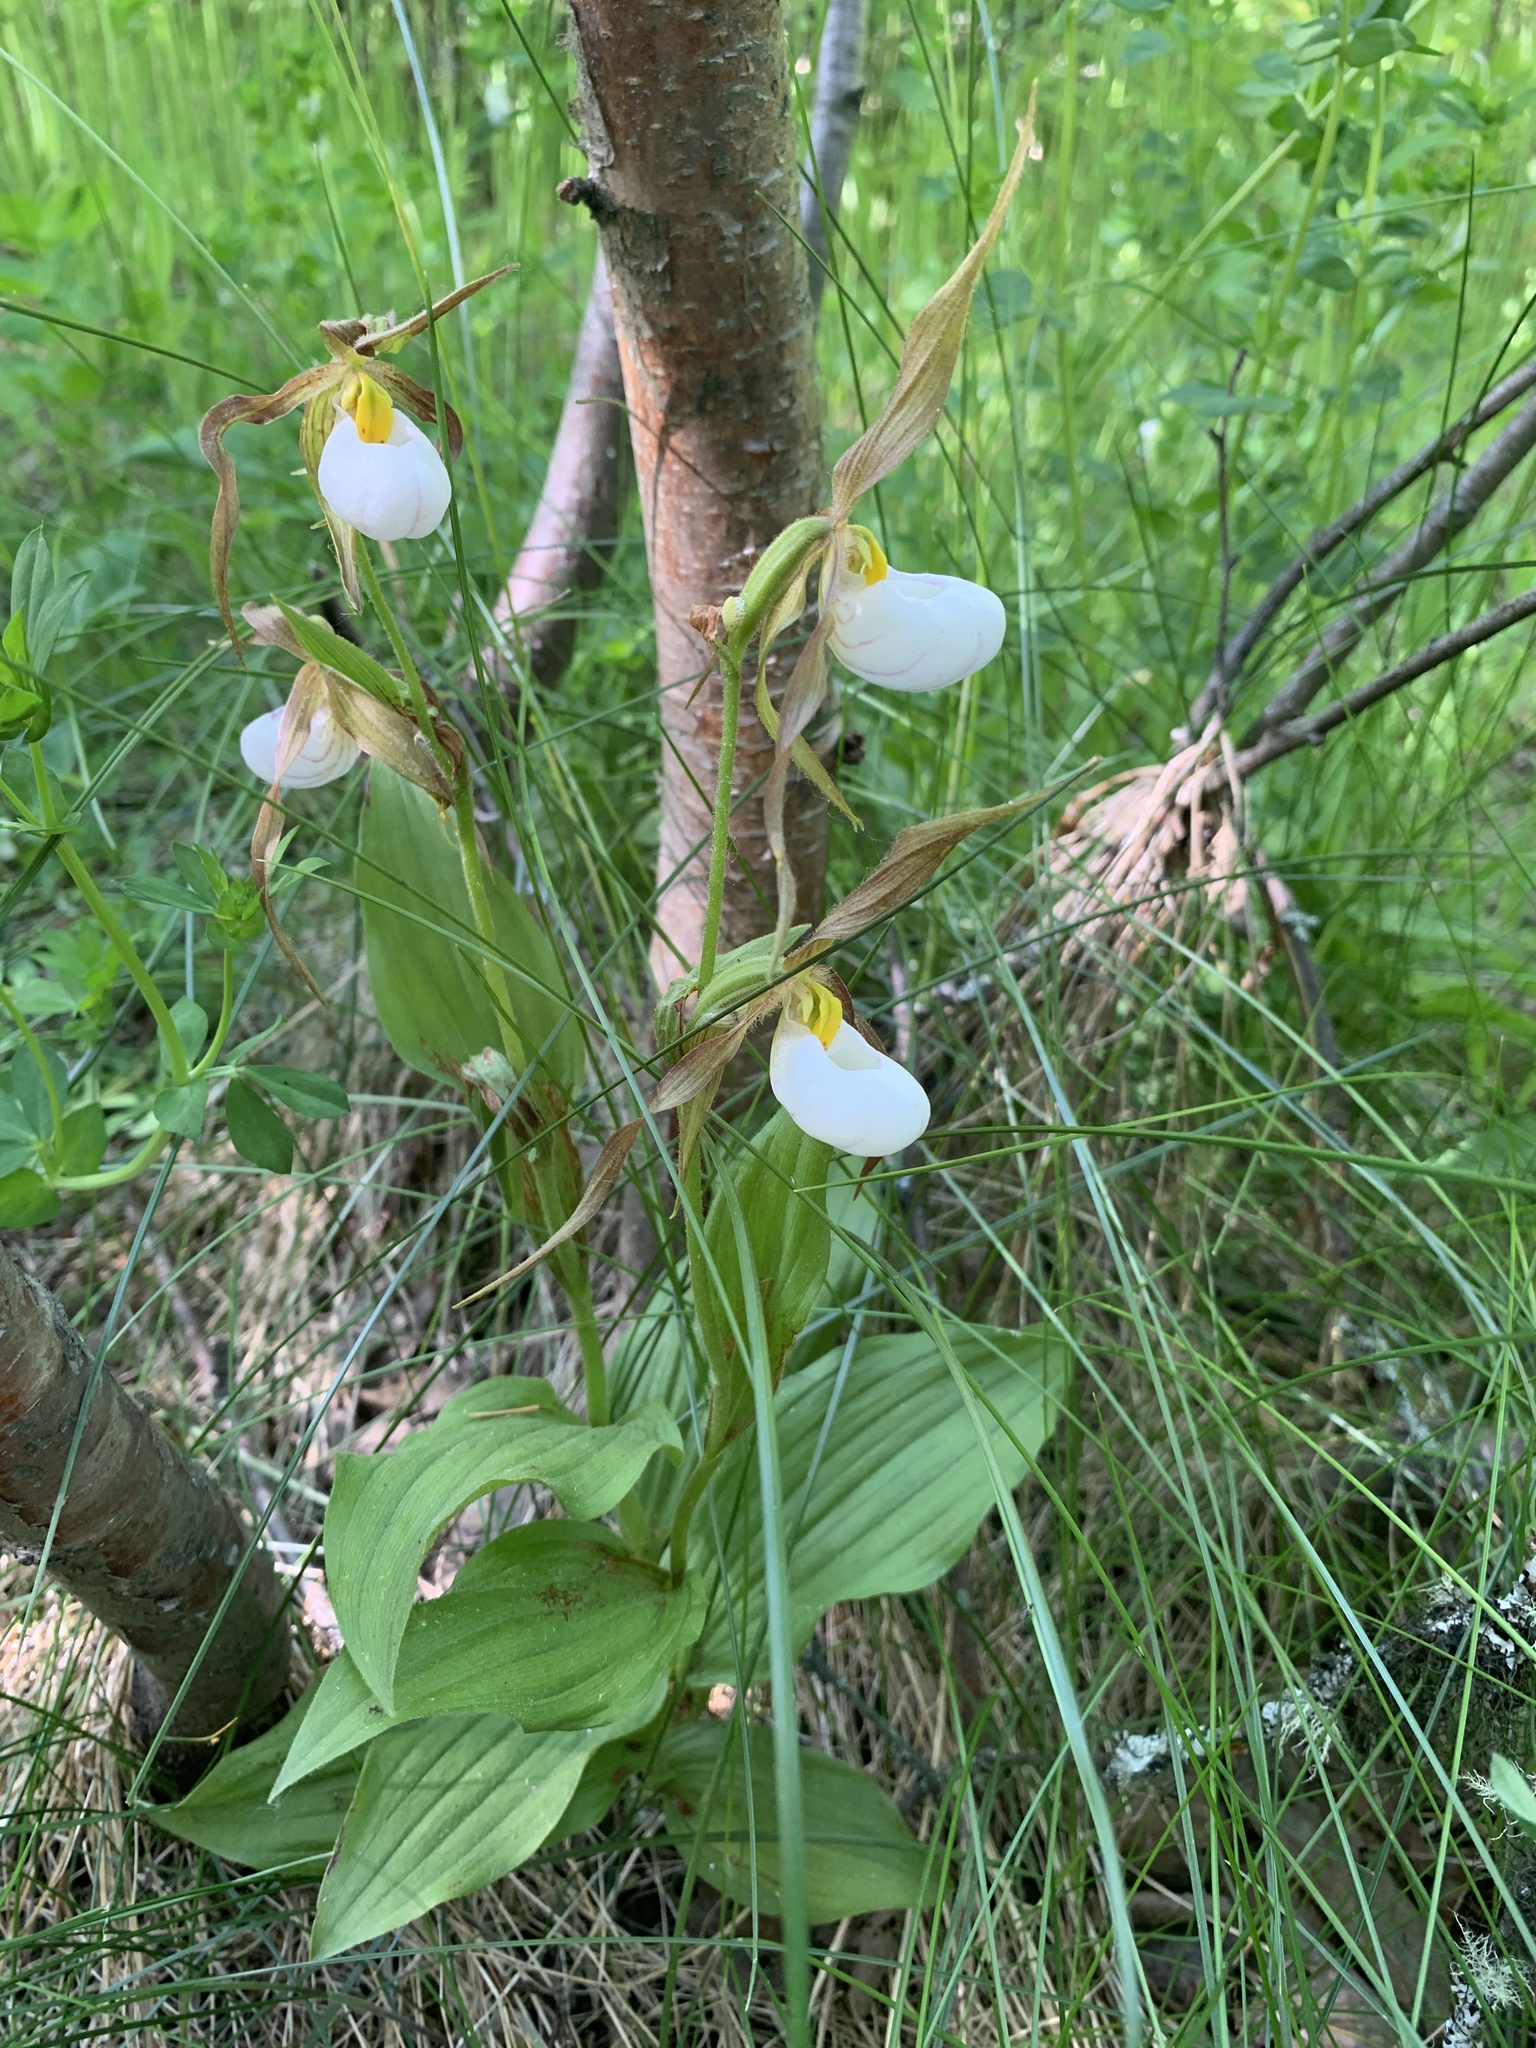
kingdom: Plantae
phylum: Tracheophyta
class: Liliopsida
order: Asparagales
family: Orchidaceae
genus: Cypripedium
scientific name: Cypripedium montanum
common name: Mountain lady's-slipper
